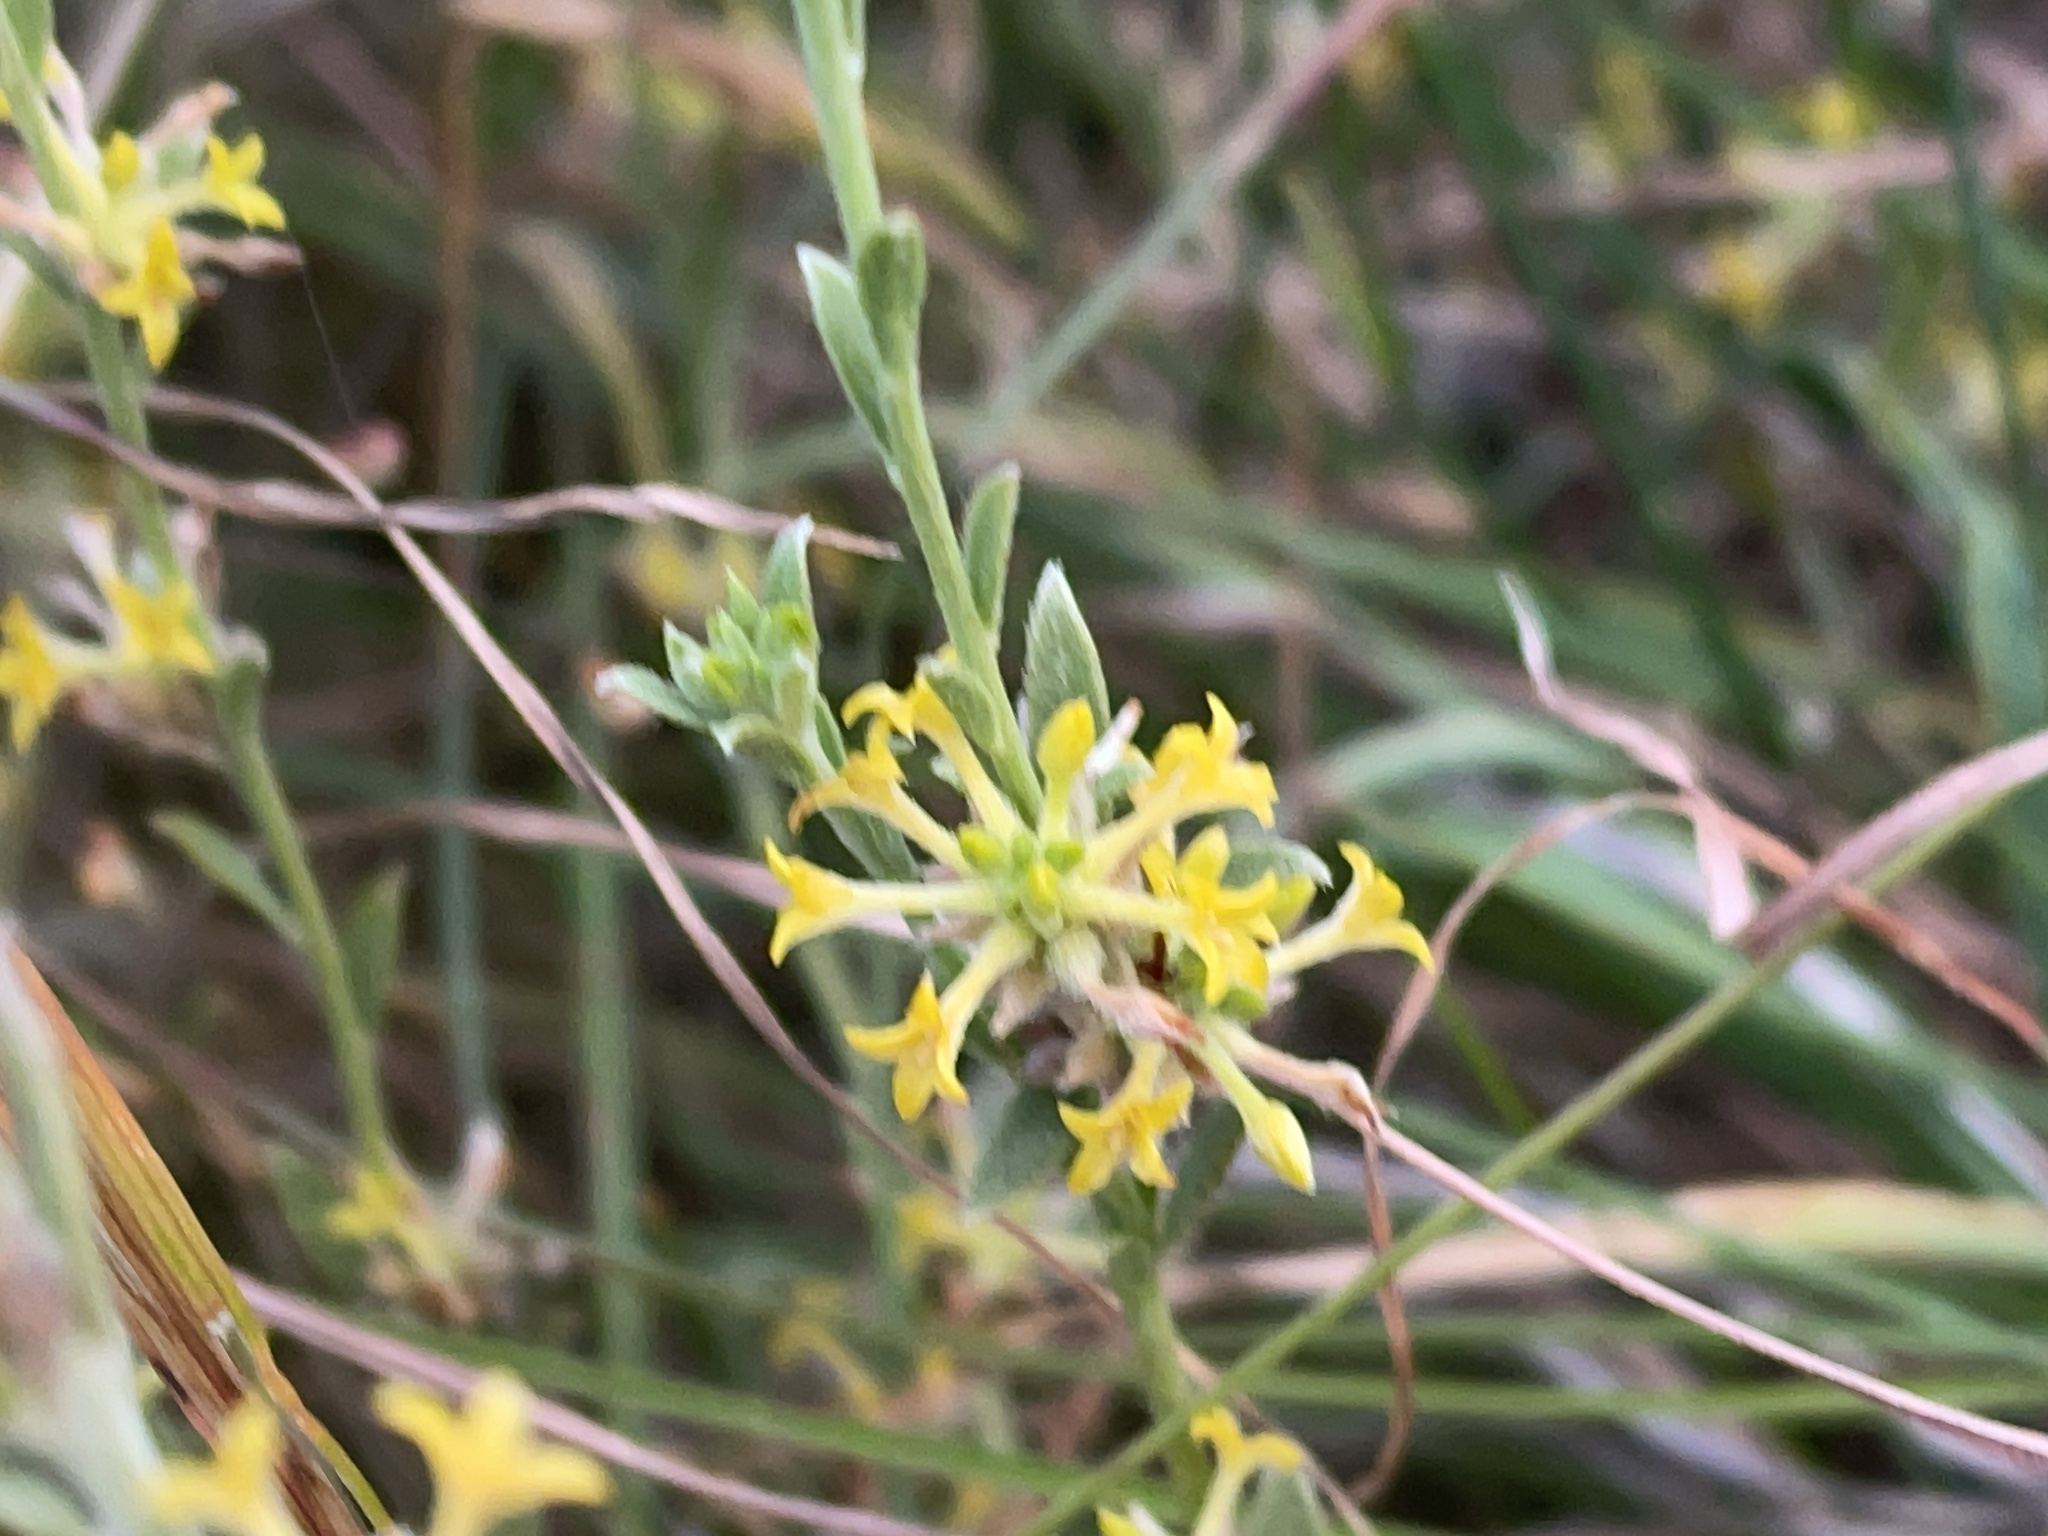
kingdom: Plantae
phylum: Tracheophyta
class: Magnoliopsida
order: Malvales
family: Thymelaeaceae
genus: Pimelea
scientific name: Pimelea curviflora
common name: Curved riceflower
